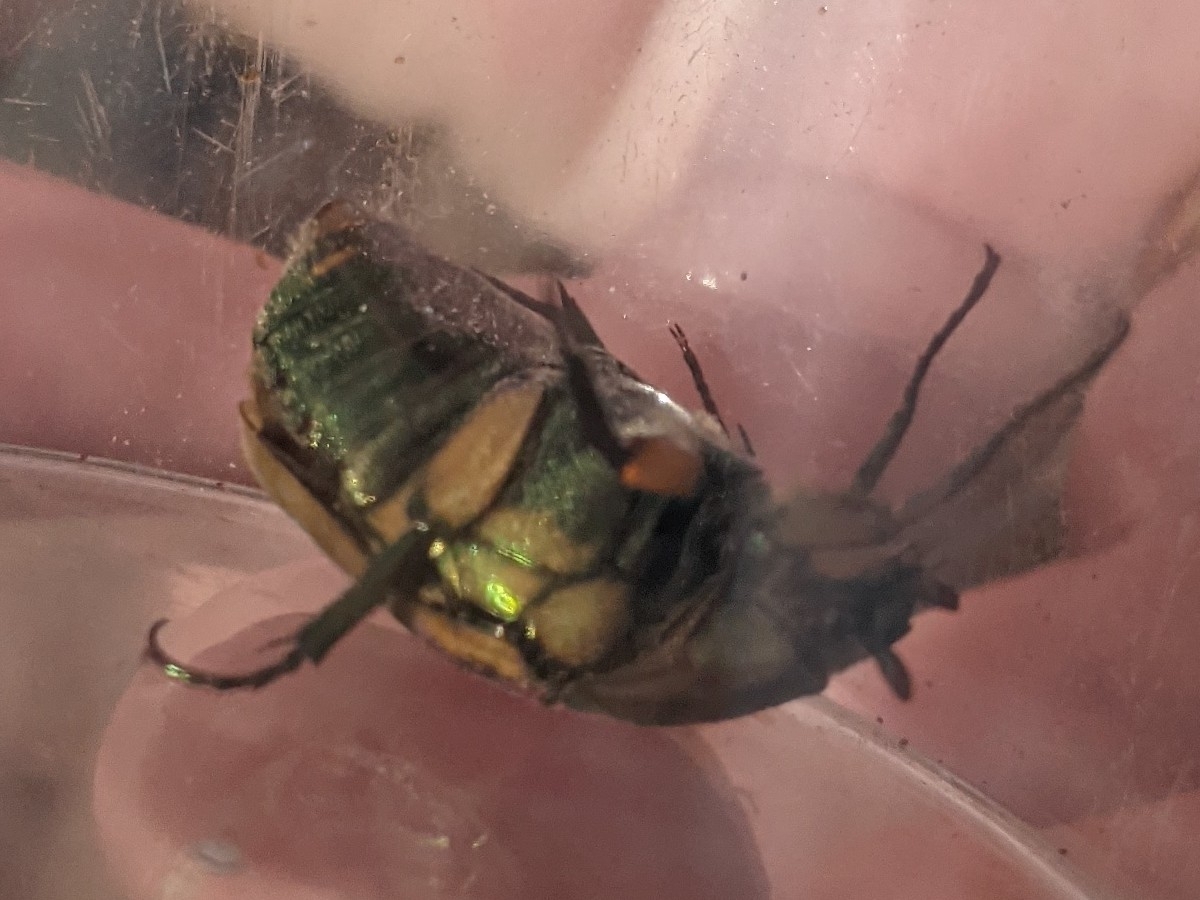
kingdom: Animalia
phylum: Arthropoda
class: Insecta
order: Coleoptera
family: Scarabaeidae
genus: Cotinis
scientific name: Cotinis nitida
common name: Common green june beetle
